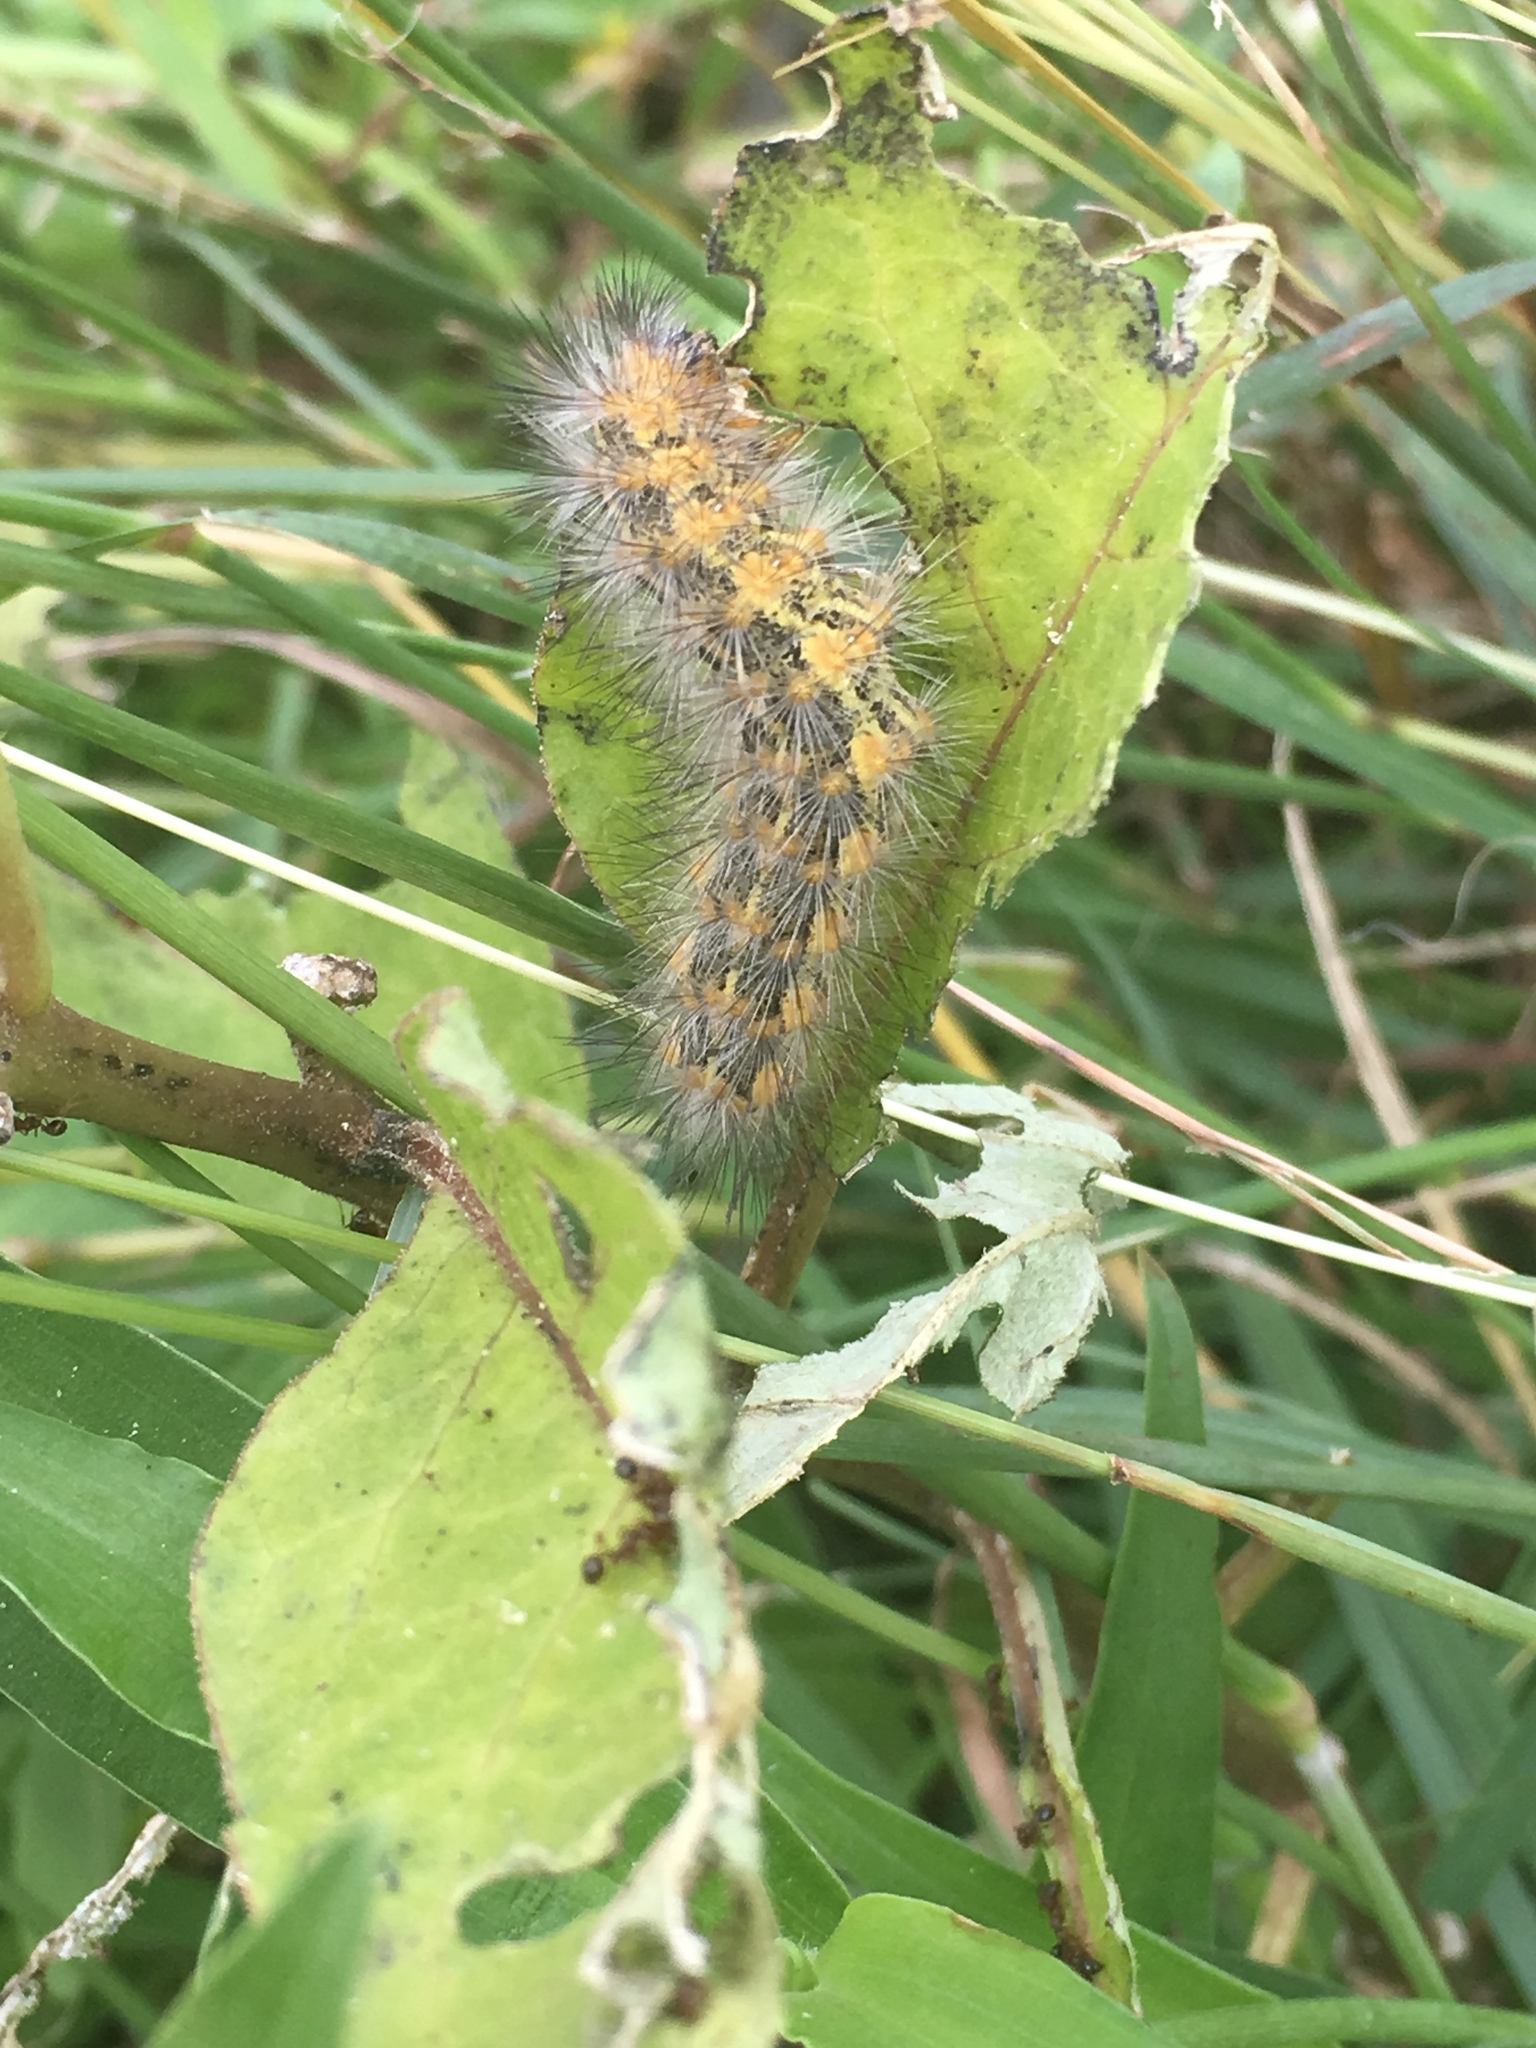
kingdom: Animalia
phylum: Arthropoda
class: Insecta
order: Lepidoptera
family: Erebidae
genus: Estigmene
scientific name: Estigmene acrea
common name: Salt marsh moth
